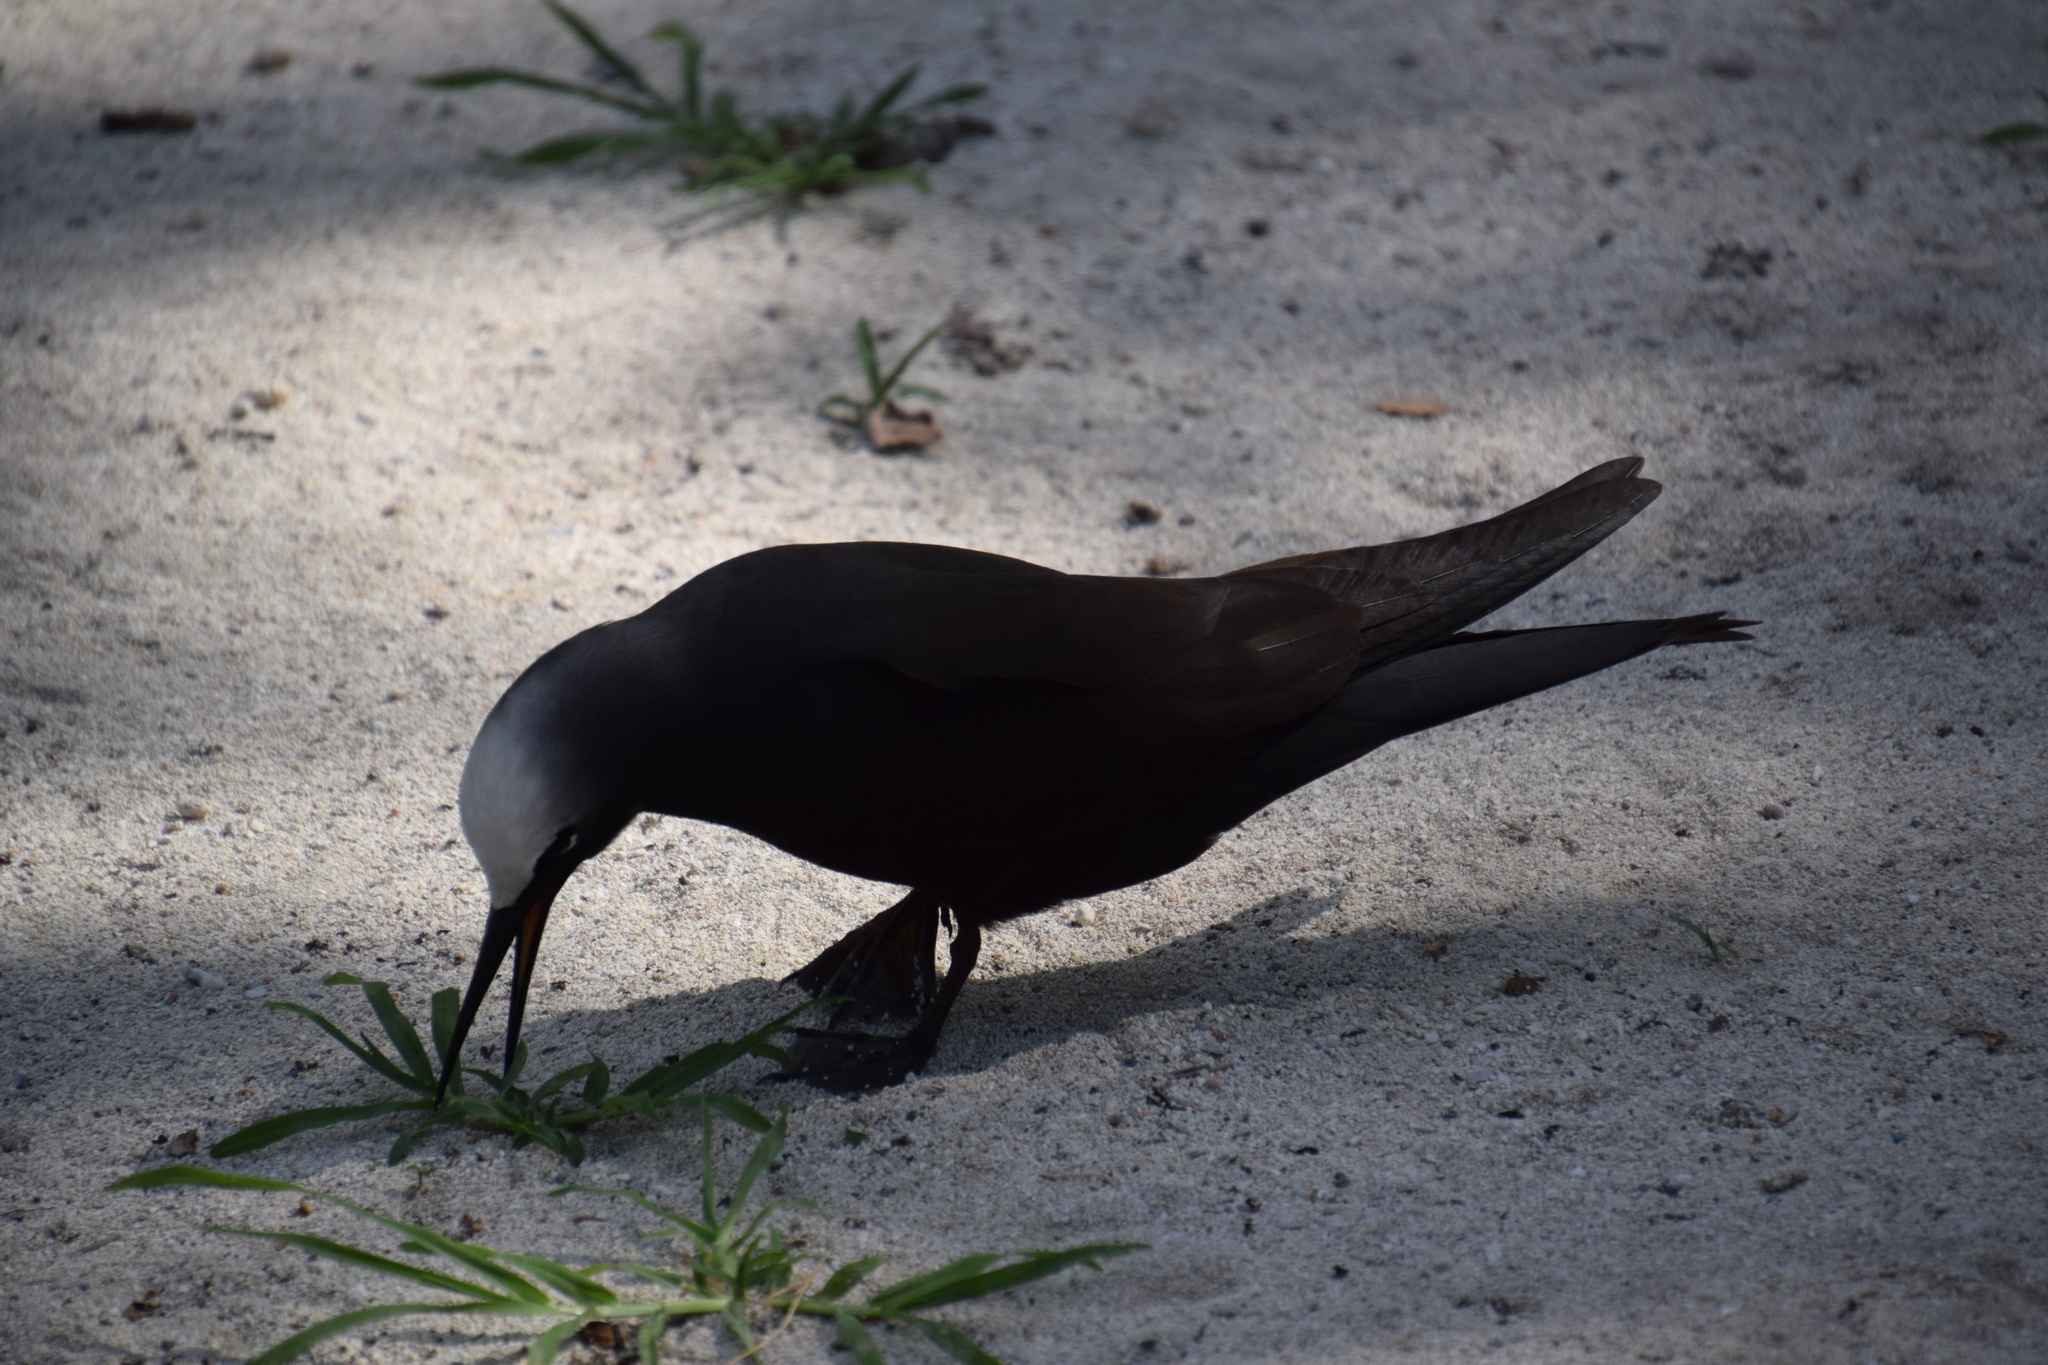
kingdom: Animalia
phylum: Chordata
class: Aves
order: Charadriiformes
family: Laridae
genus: Anous
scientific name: Anous minutus
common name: Black noddy
